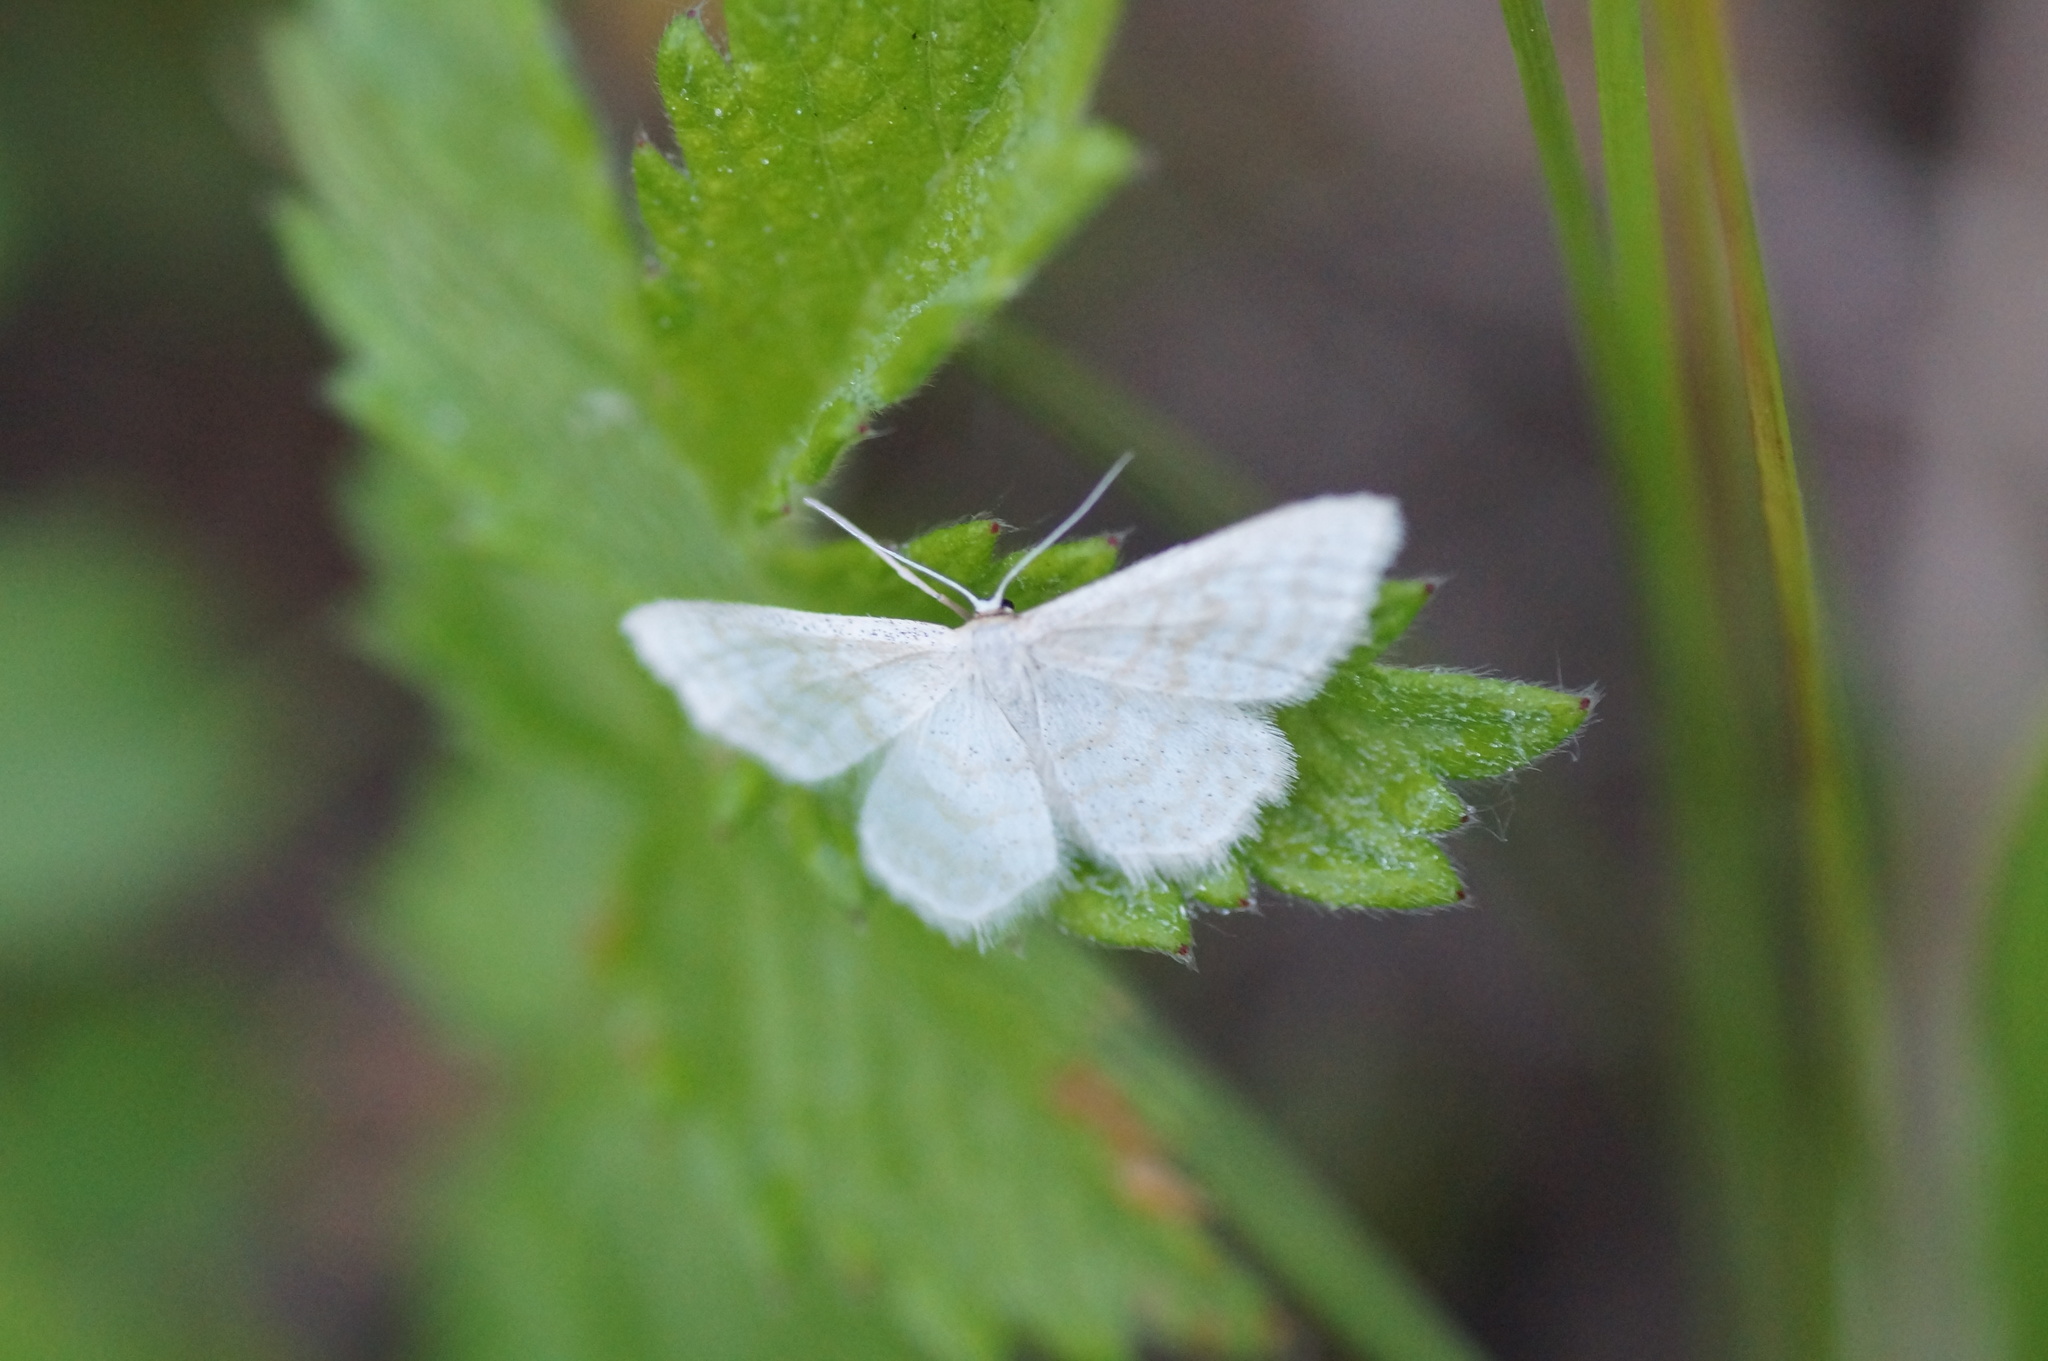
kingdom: Animalia
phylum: Arthropoda
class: Insecta
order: Lepidoptera
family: Geometridae
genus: Idaea
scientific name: Idaea pallidata
